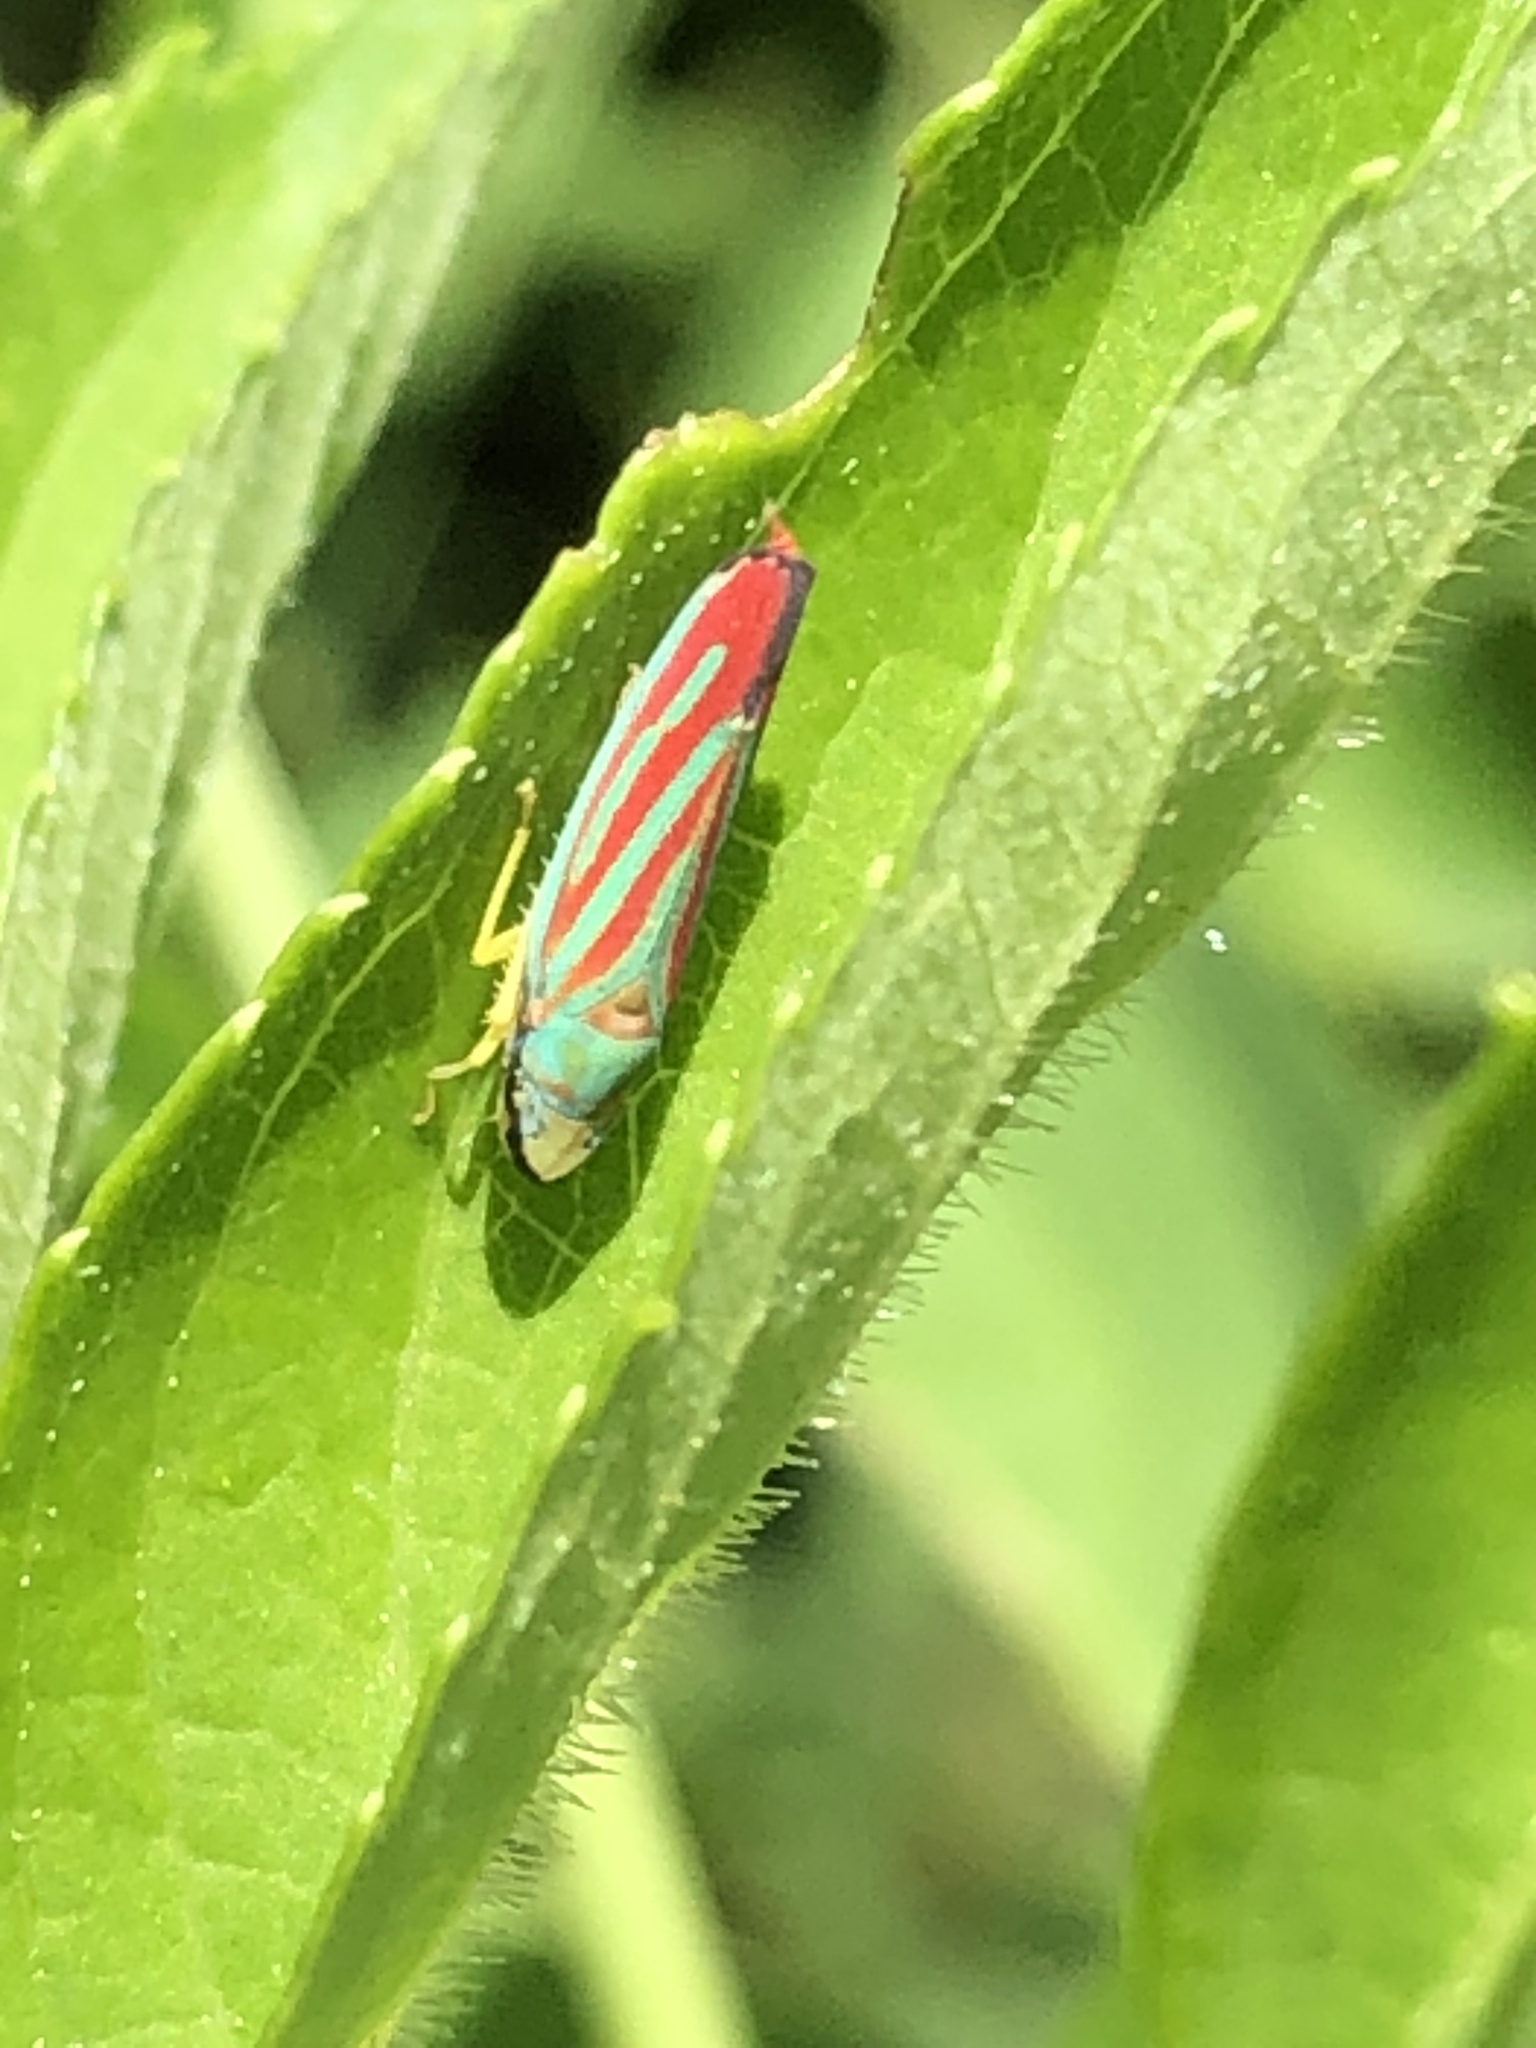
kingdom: Animalia
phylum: Arthropoda
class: Insecta
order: Hemiptera
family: Cicadellidae
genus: Graphocephala
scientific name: Graphocephala coccinea
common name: Candy-striped leafhopper
